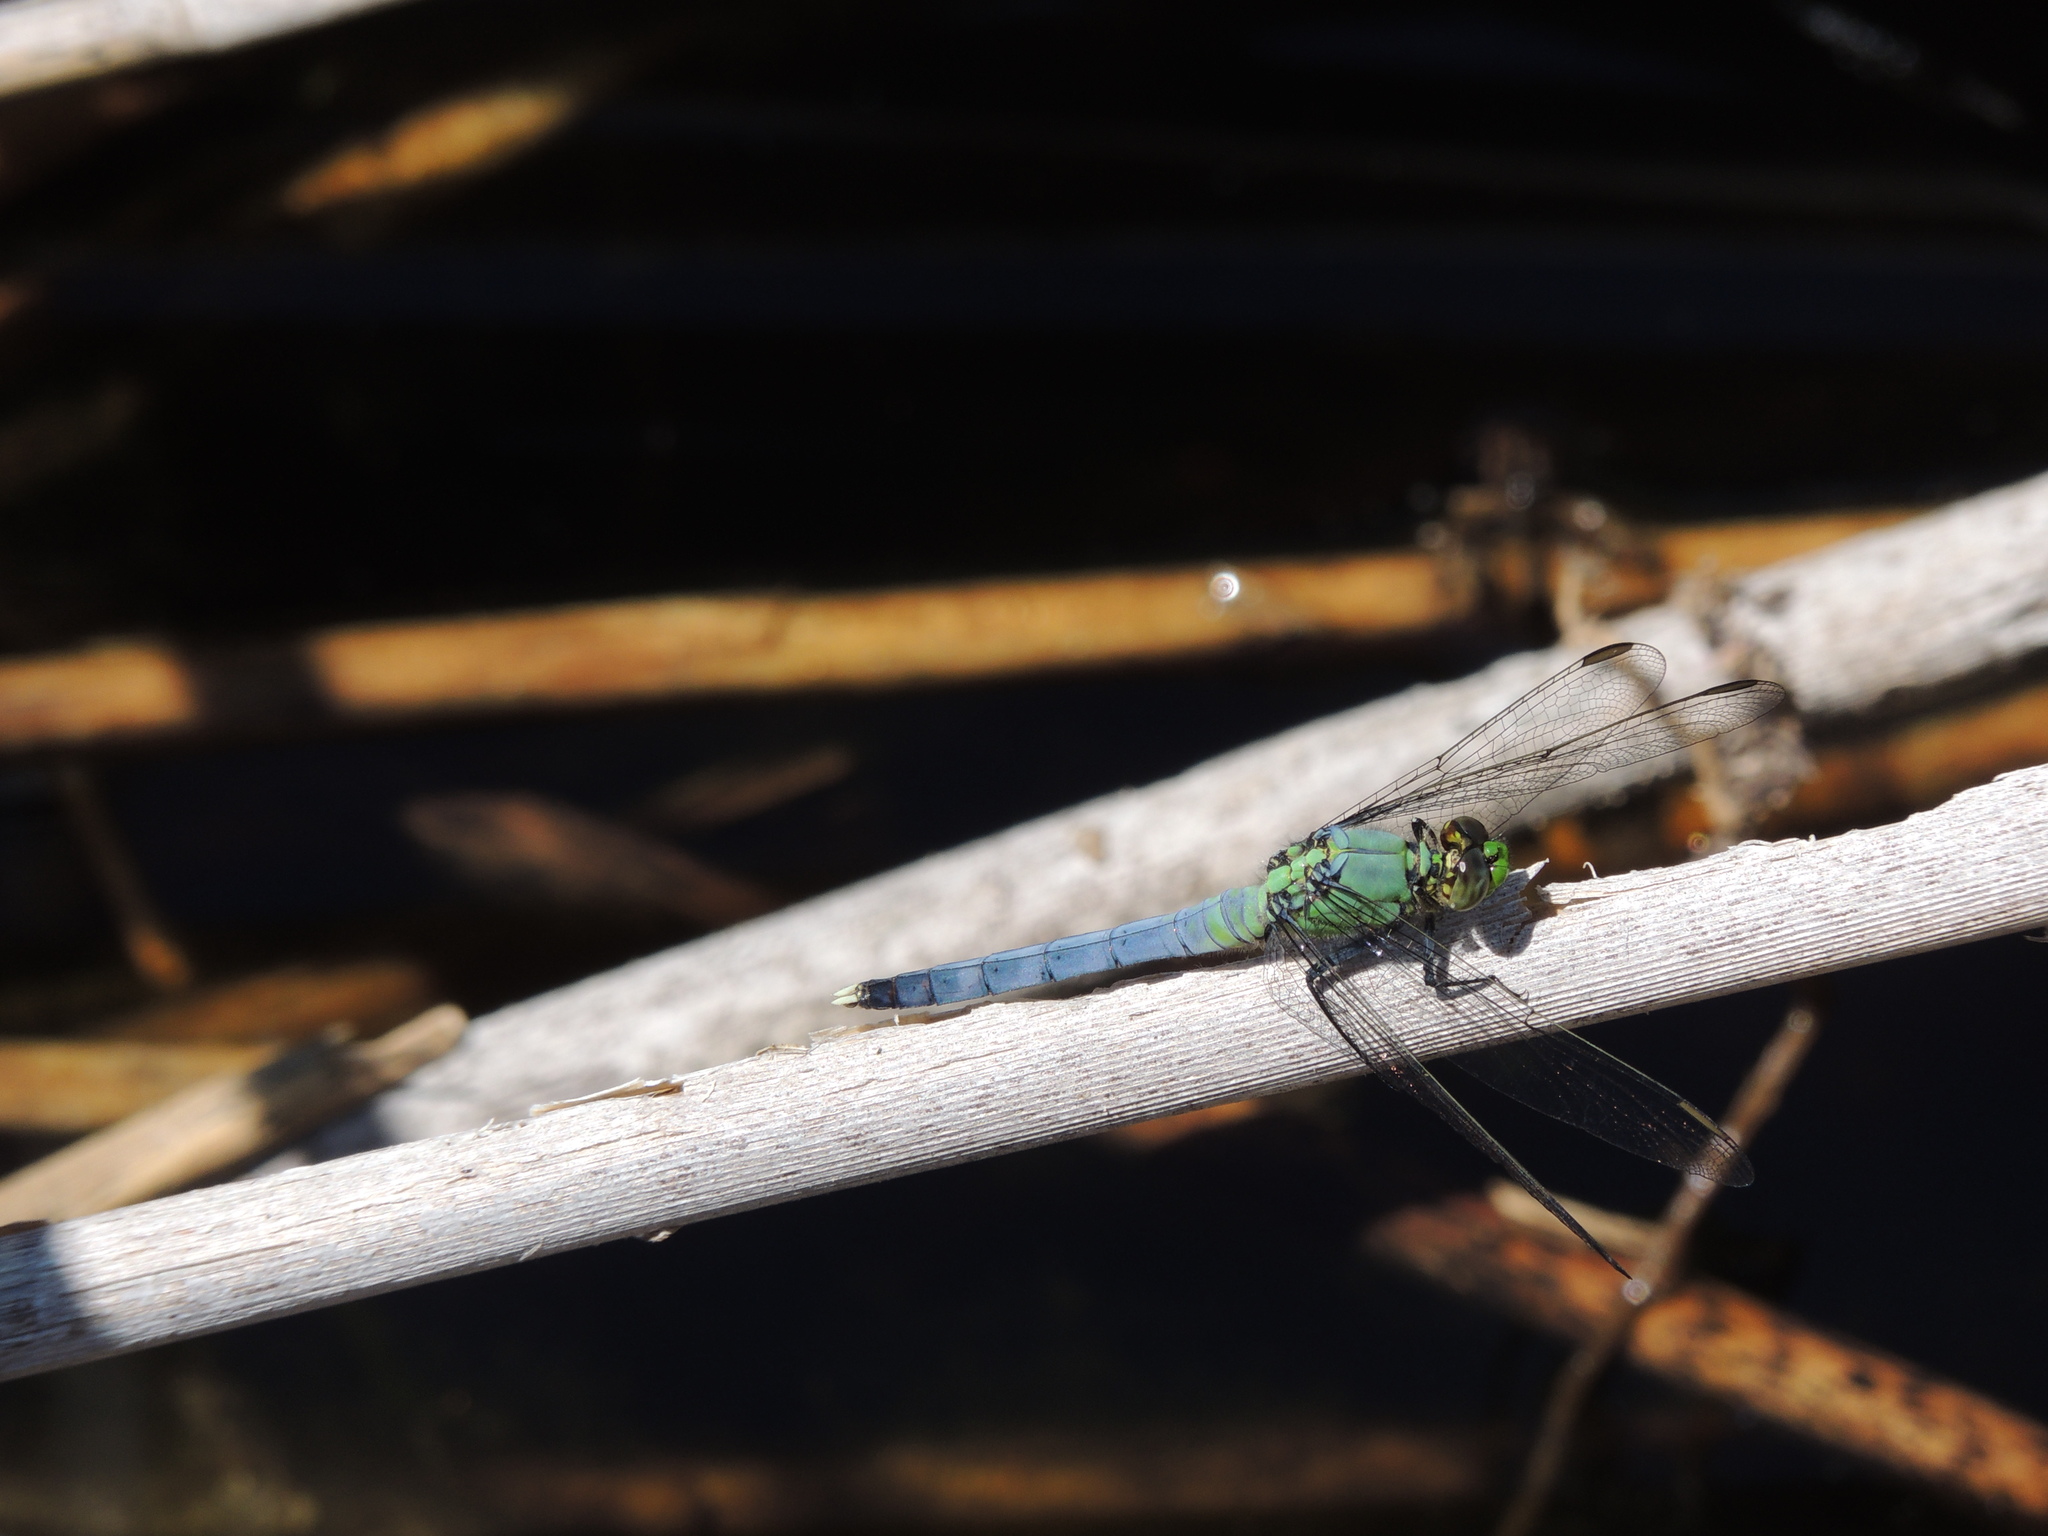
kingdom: Animalia
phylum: Arthropoda
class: Insecta
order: Odonata
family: Libellulidae
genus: Erythemis
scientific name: Erythemis simplicicollis
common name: Eastern pondhawk
